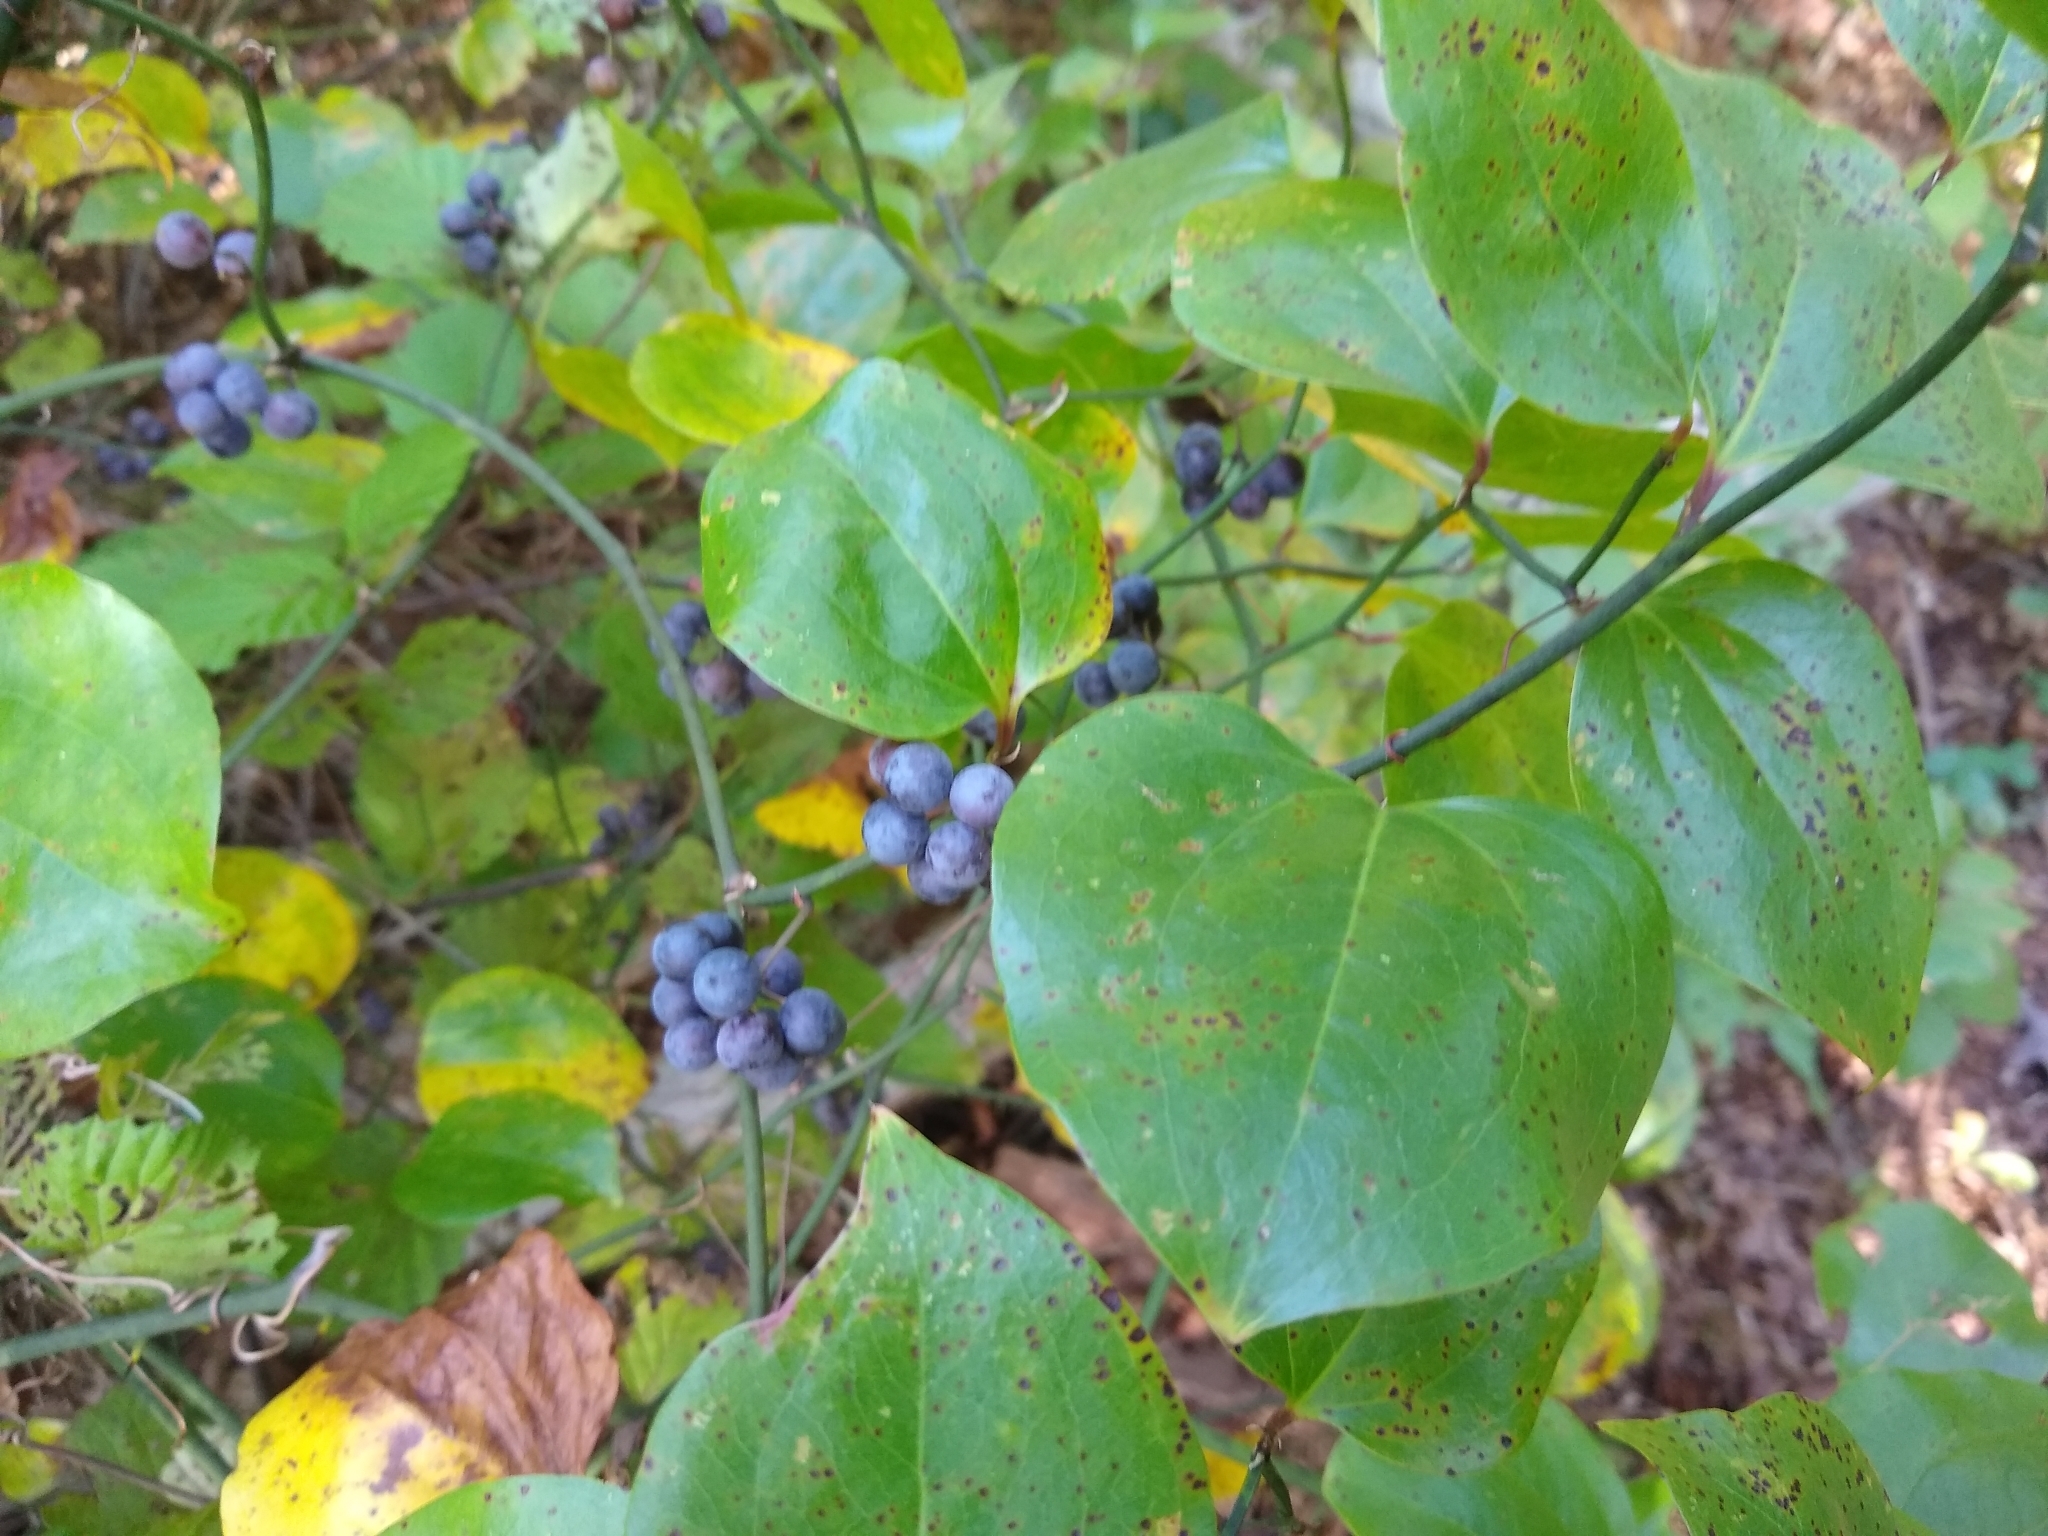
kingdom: Plantae
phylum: Tracheophyta
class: Liliopsida
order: Liliales
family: Smilacaceae
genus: Smilax
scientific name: Smilax rotundifolia
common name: Bullbriar
